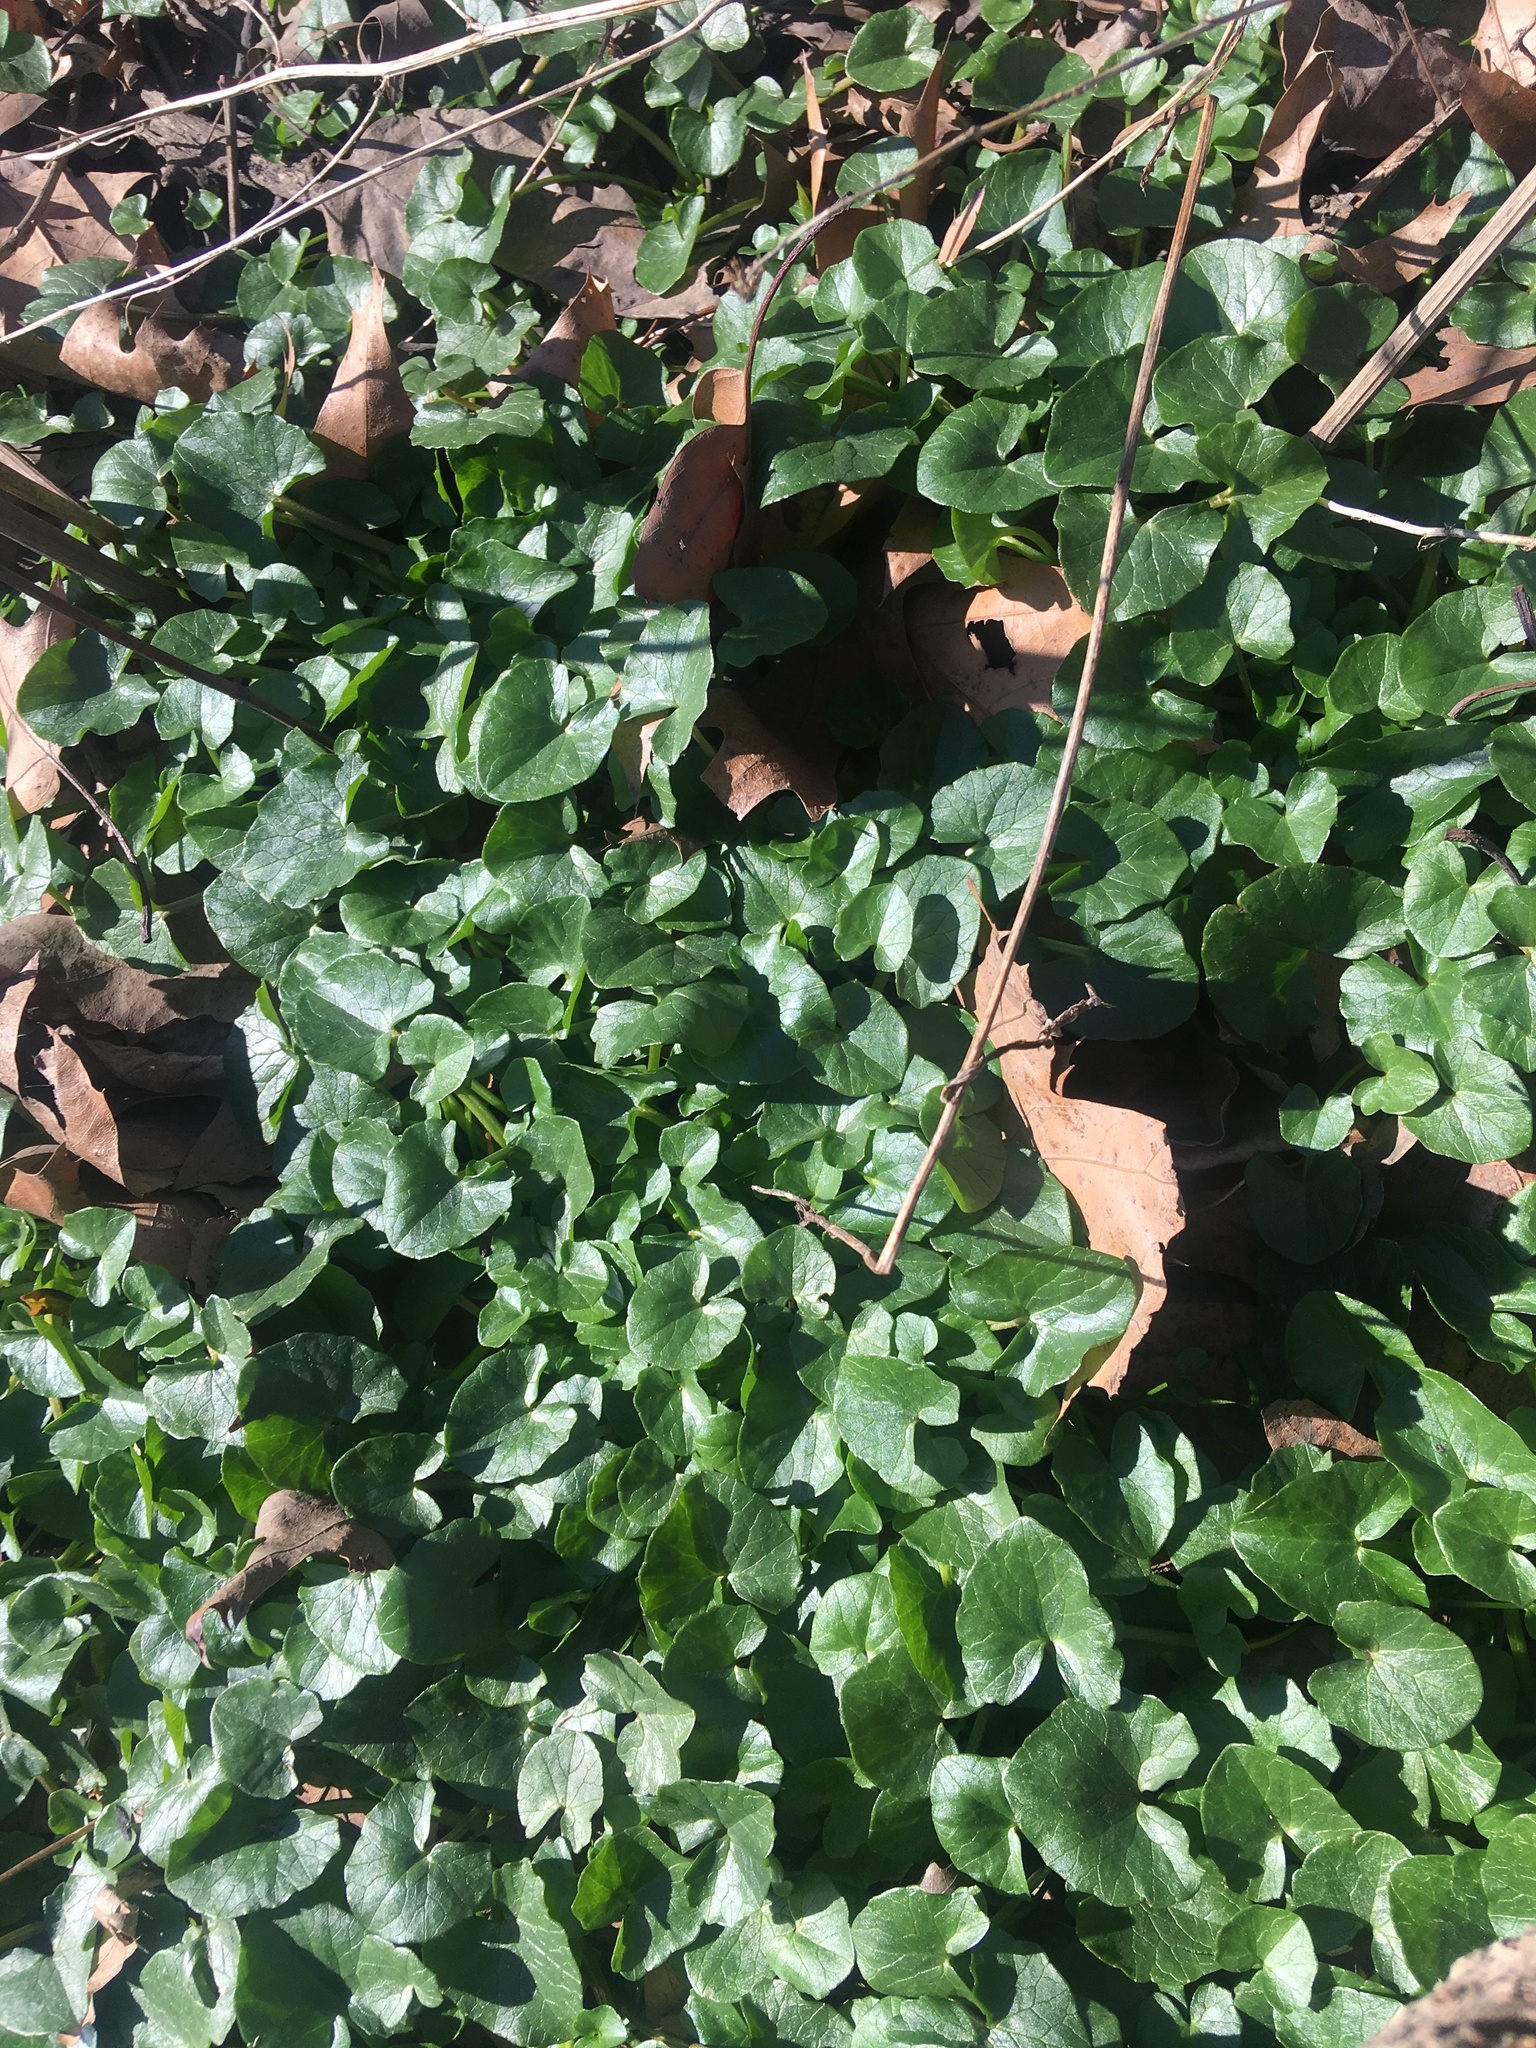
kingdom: Plantae
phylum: Tracheophyta
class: Magnoliopsida
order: Ranunculales
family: Ranunculaceae
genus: Ficaria
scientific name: Ficaria verna
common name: Lesser celandine
